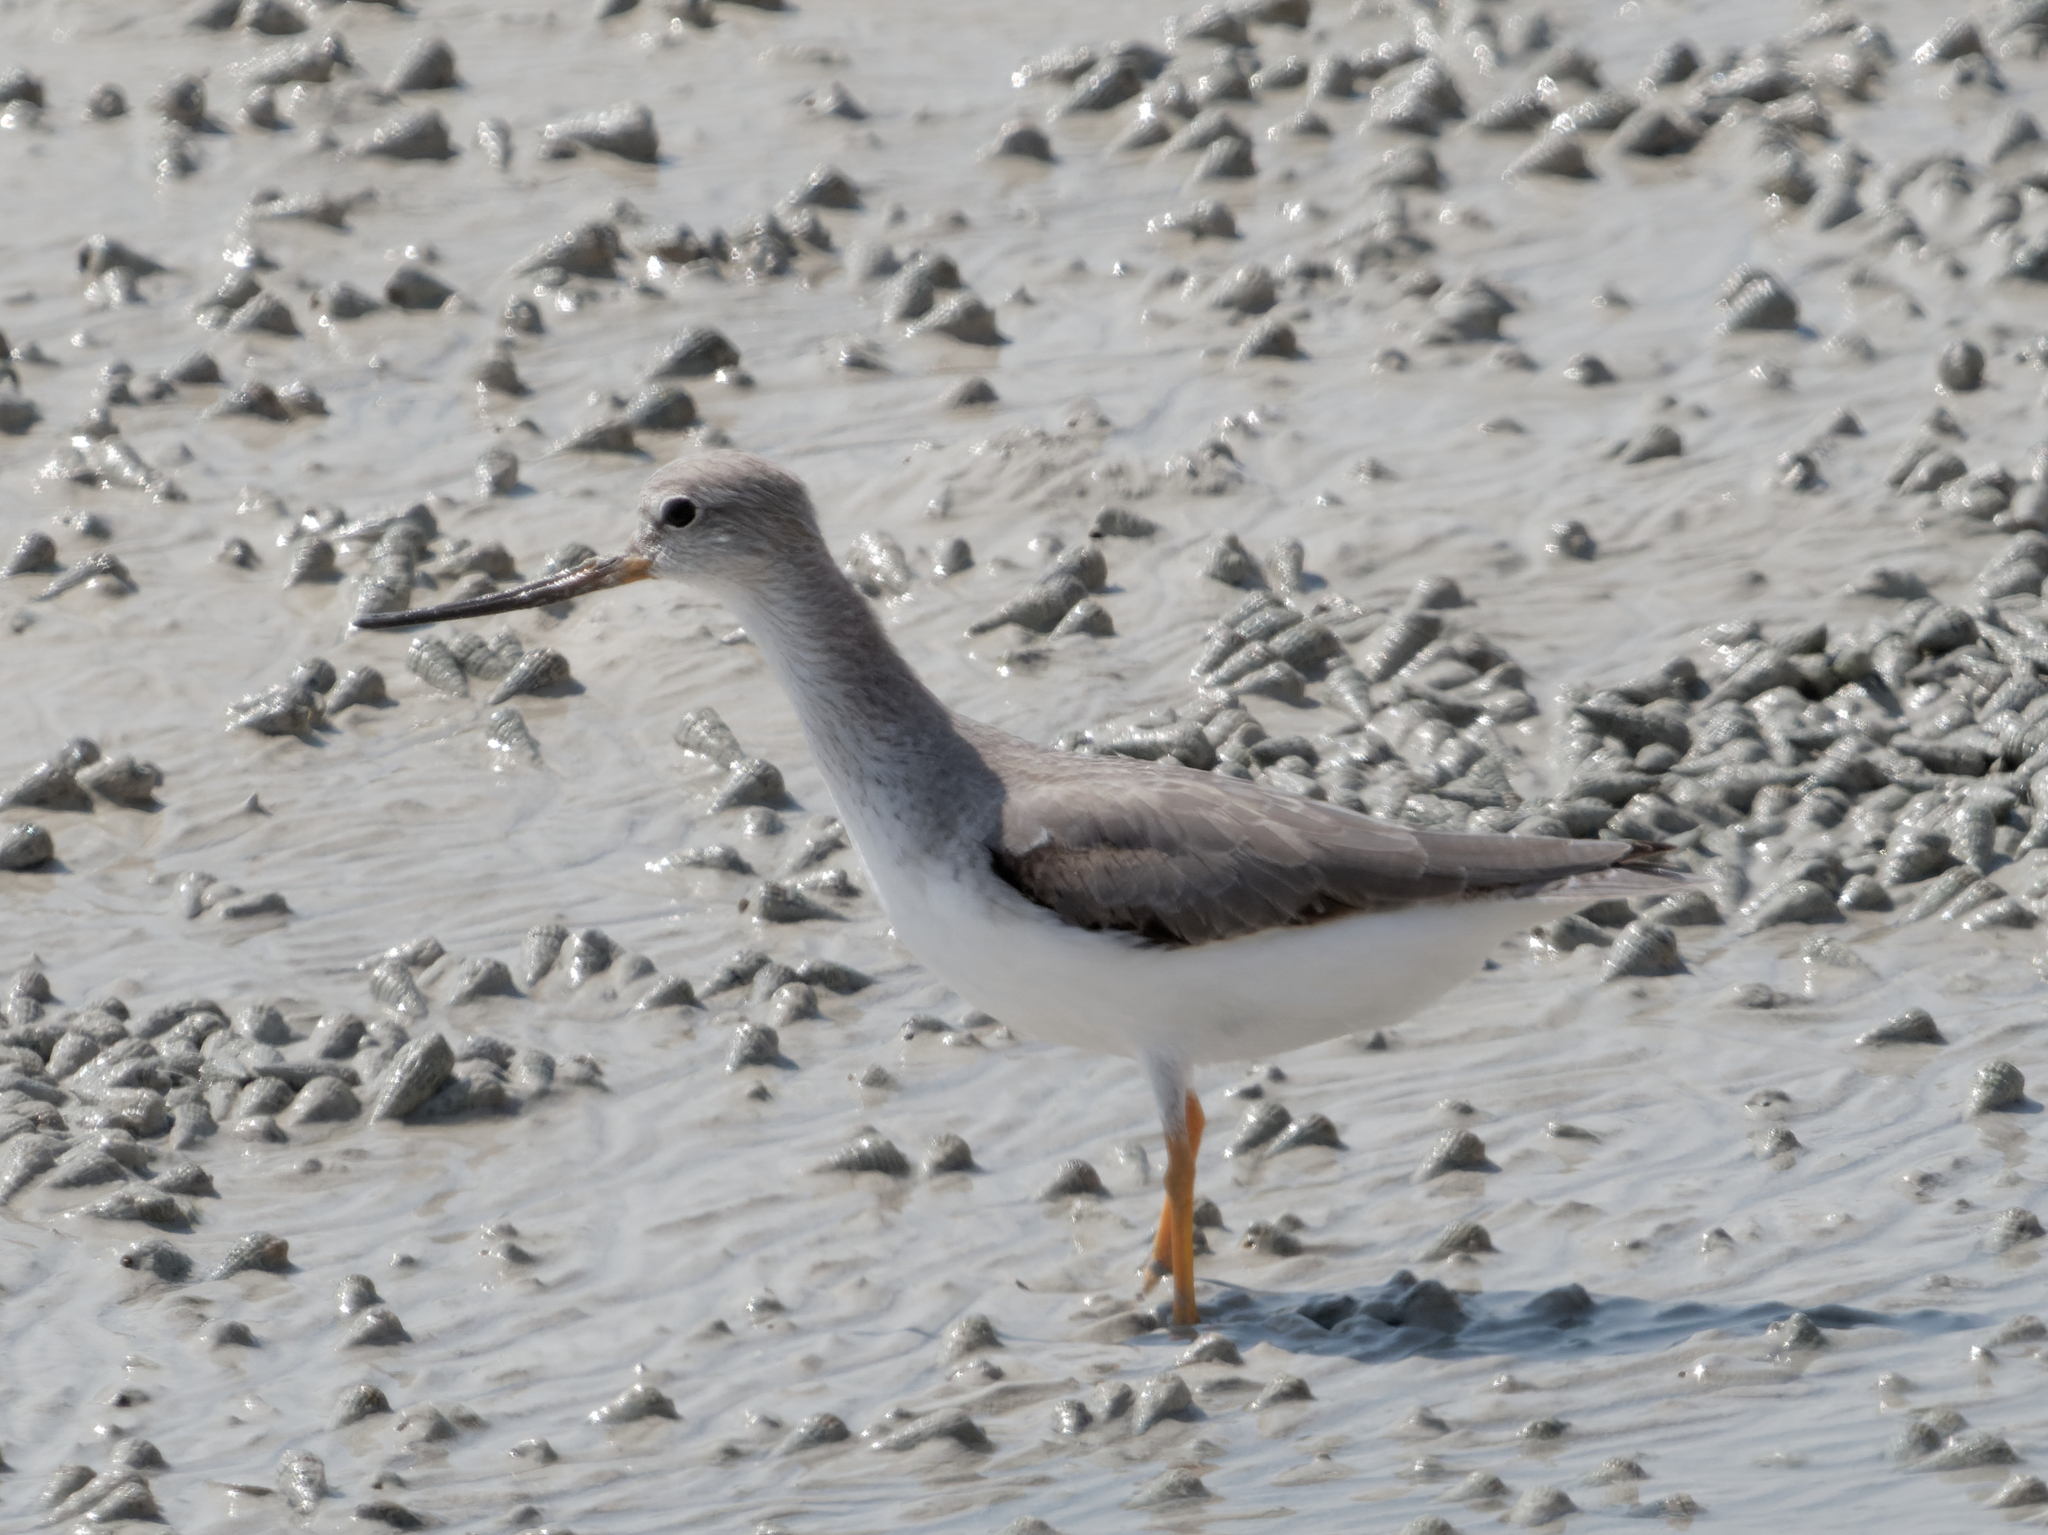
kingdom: Animalia
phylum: Chordata
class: Aves
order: Charadriiformes
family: Scolopacidae
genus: Xenus
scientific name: Xenus cinereus
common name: Terek sandpiper
